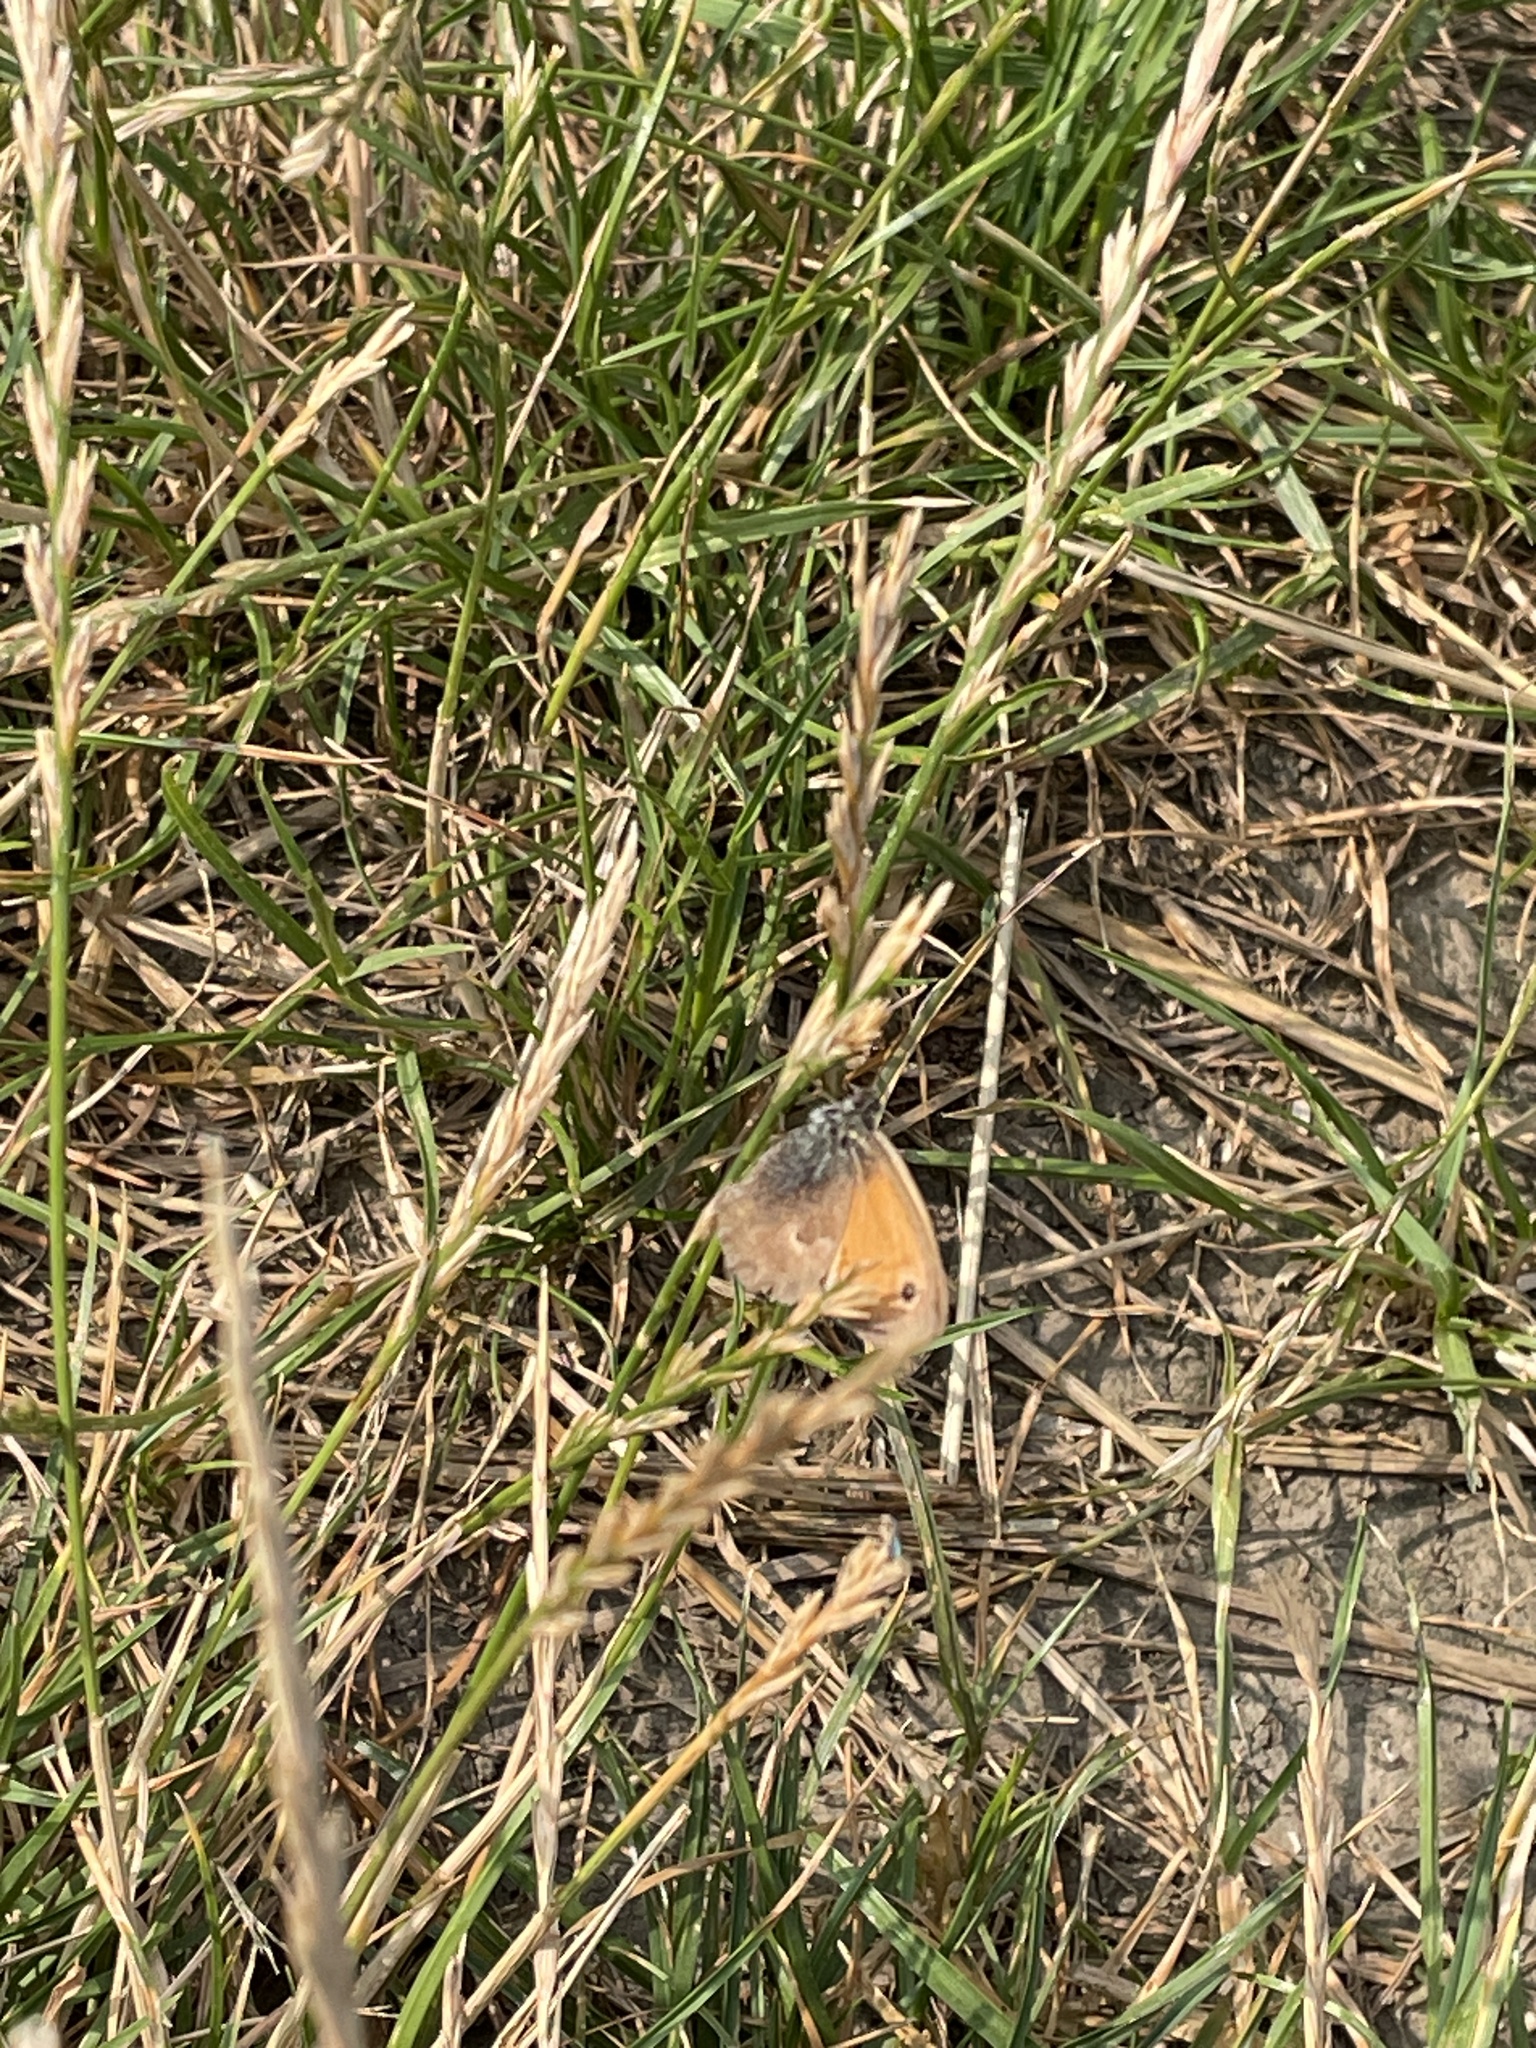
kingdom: Animalia
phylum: Arthropoda
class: Insecta
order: Lepidoptera
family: Nymphalidae
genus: Coenonympha
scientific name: Coenonympha pamphilus
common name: Small heath
